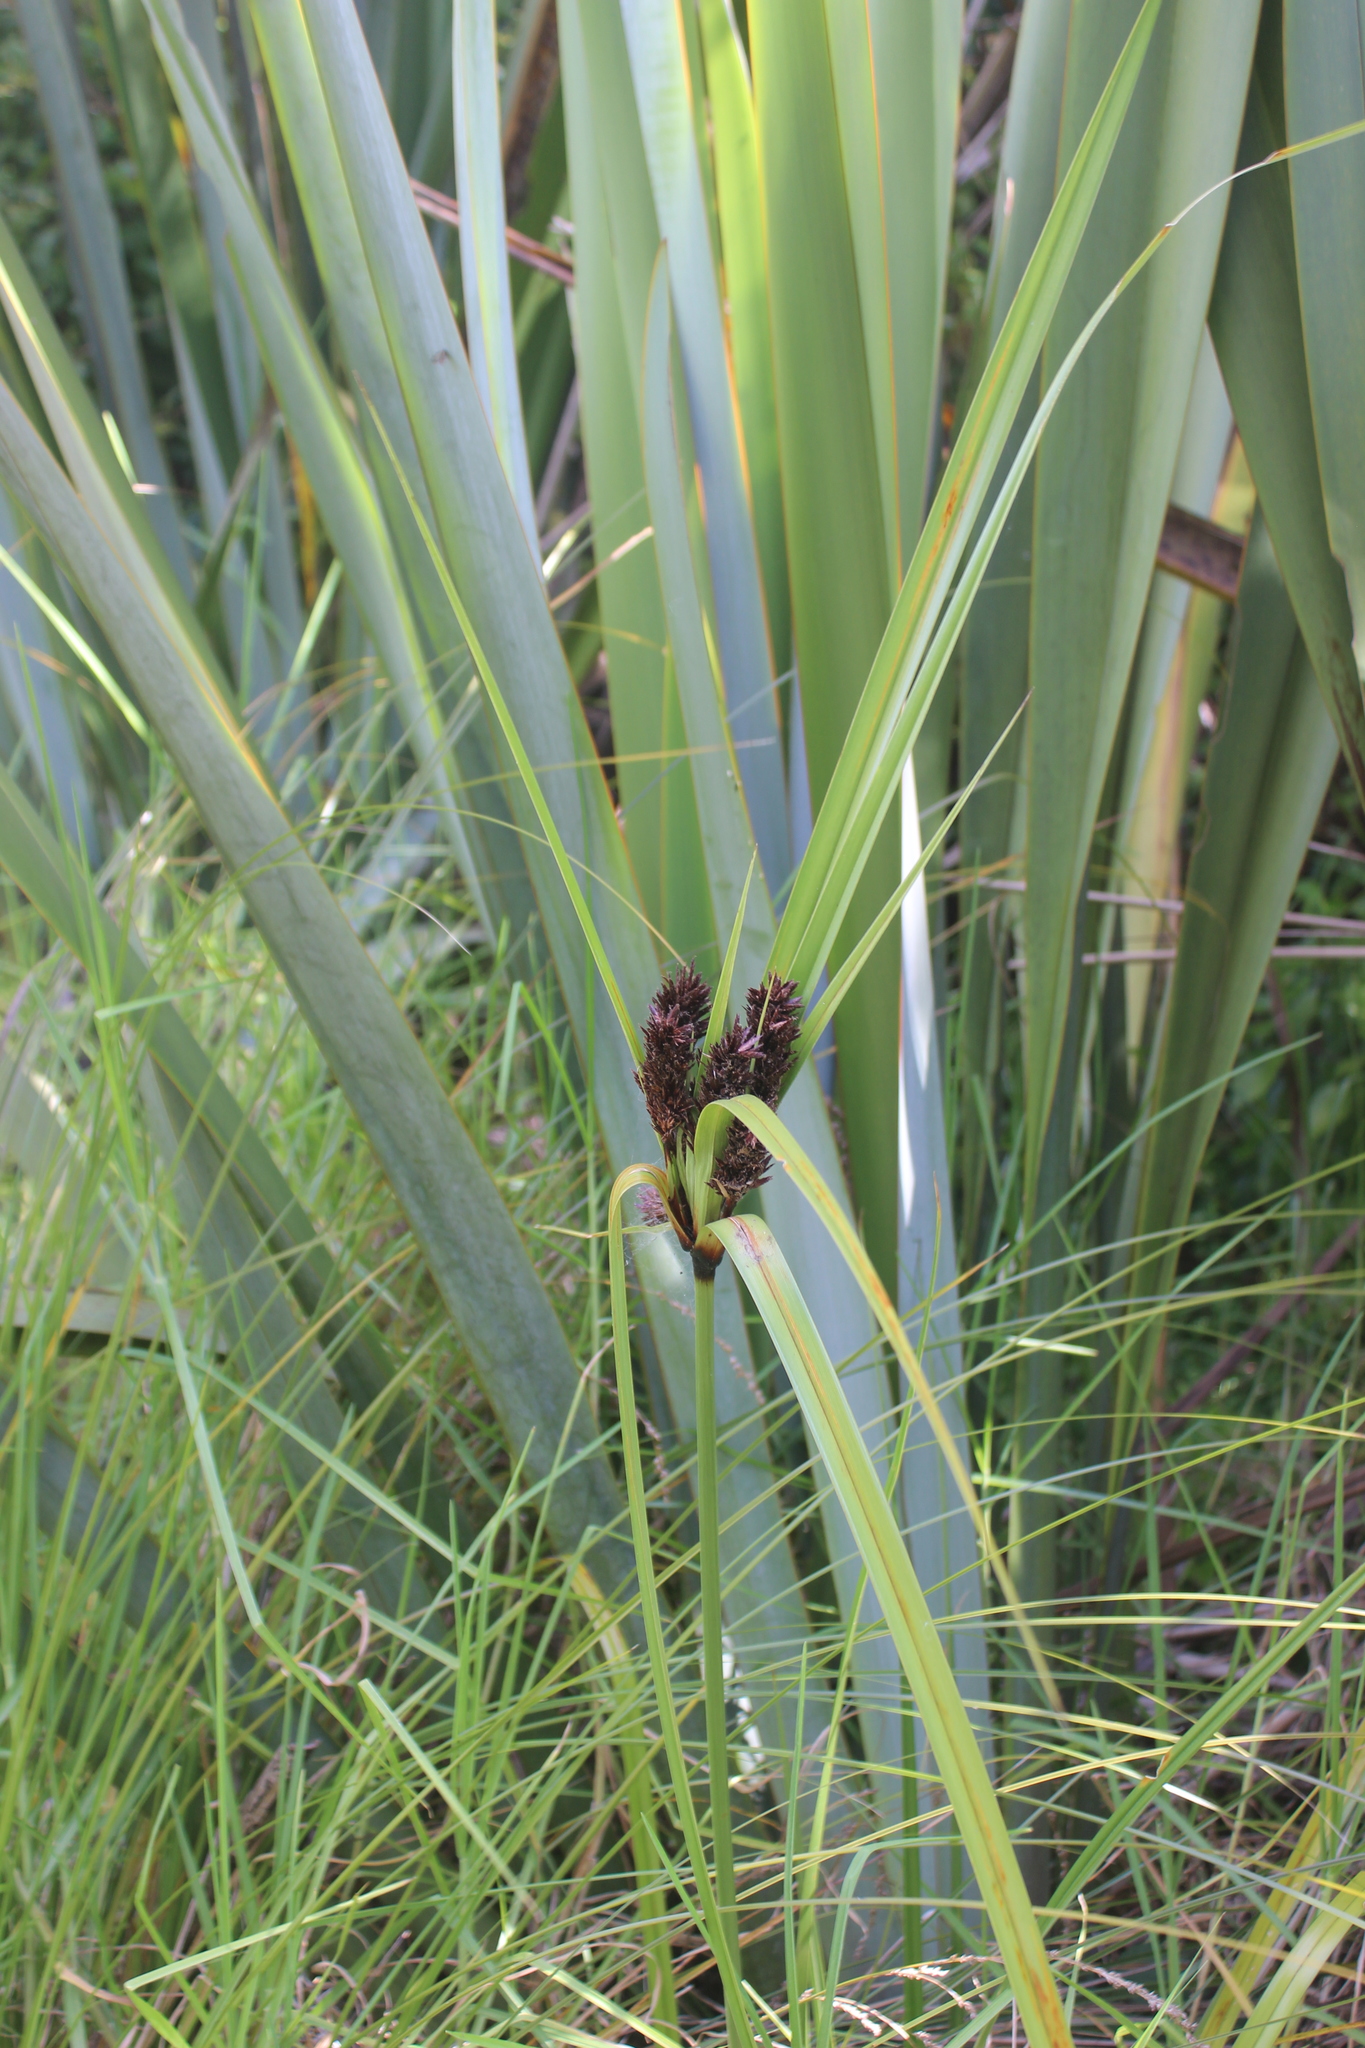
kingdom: Plantae
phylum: Tracheophyta
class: Liliopsida
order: Poales
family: Cyperaceae
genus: Cyperus
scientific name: Cyperus ustulatus
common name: Giant umbrella-sedge
